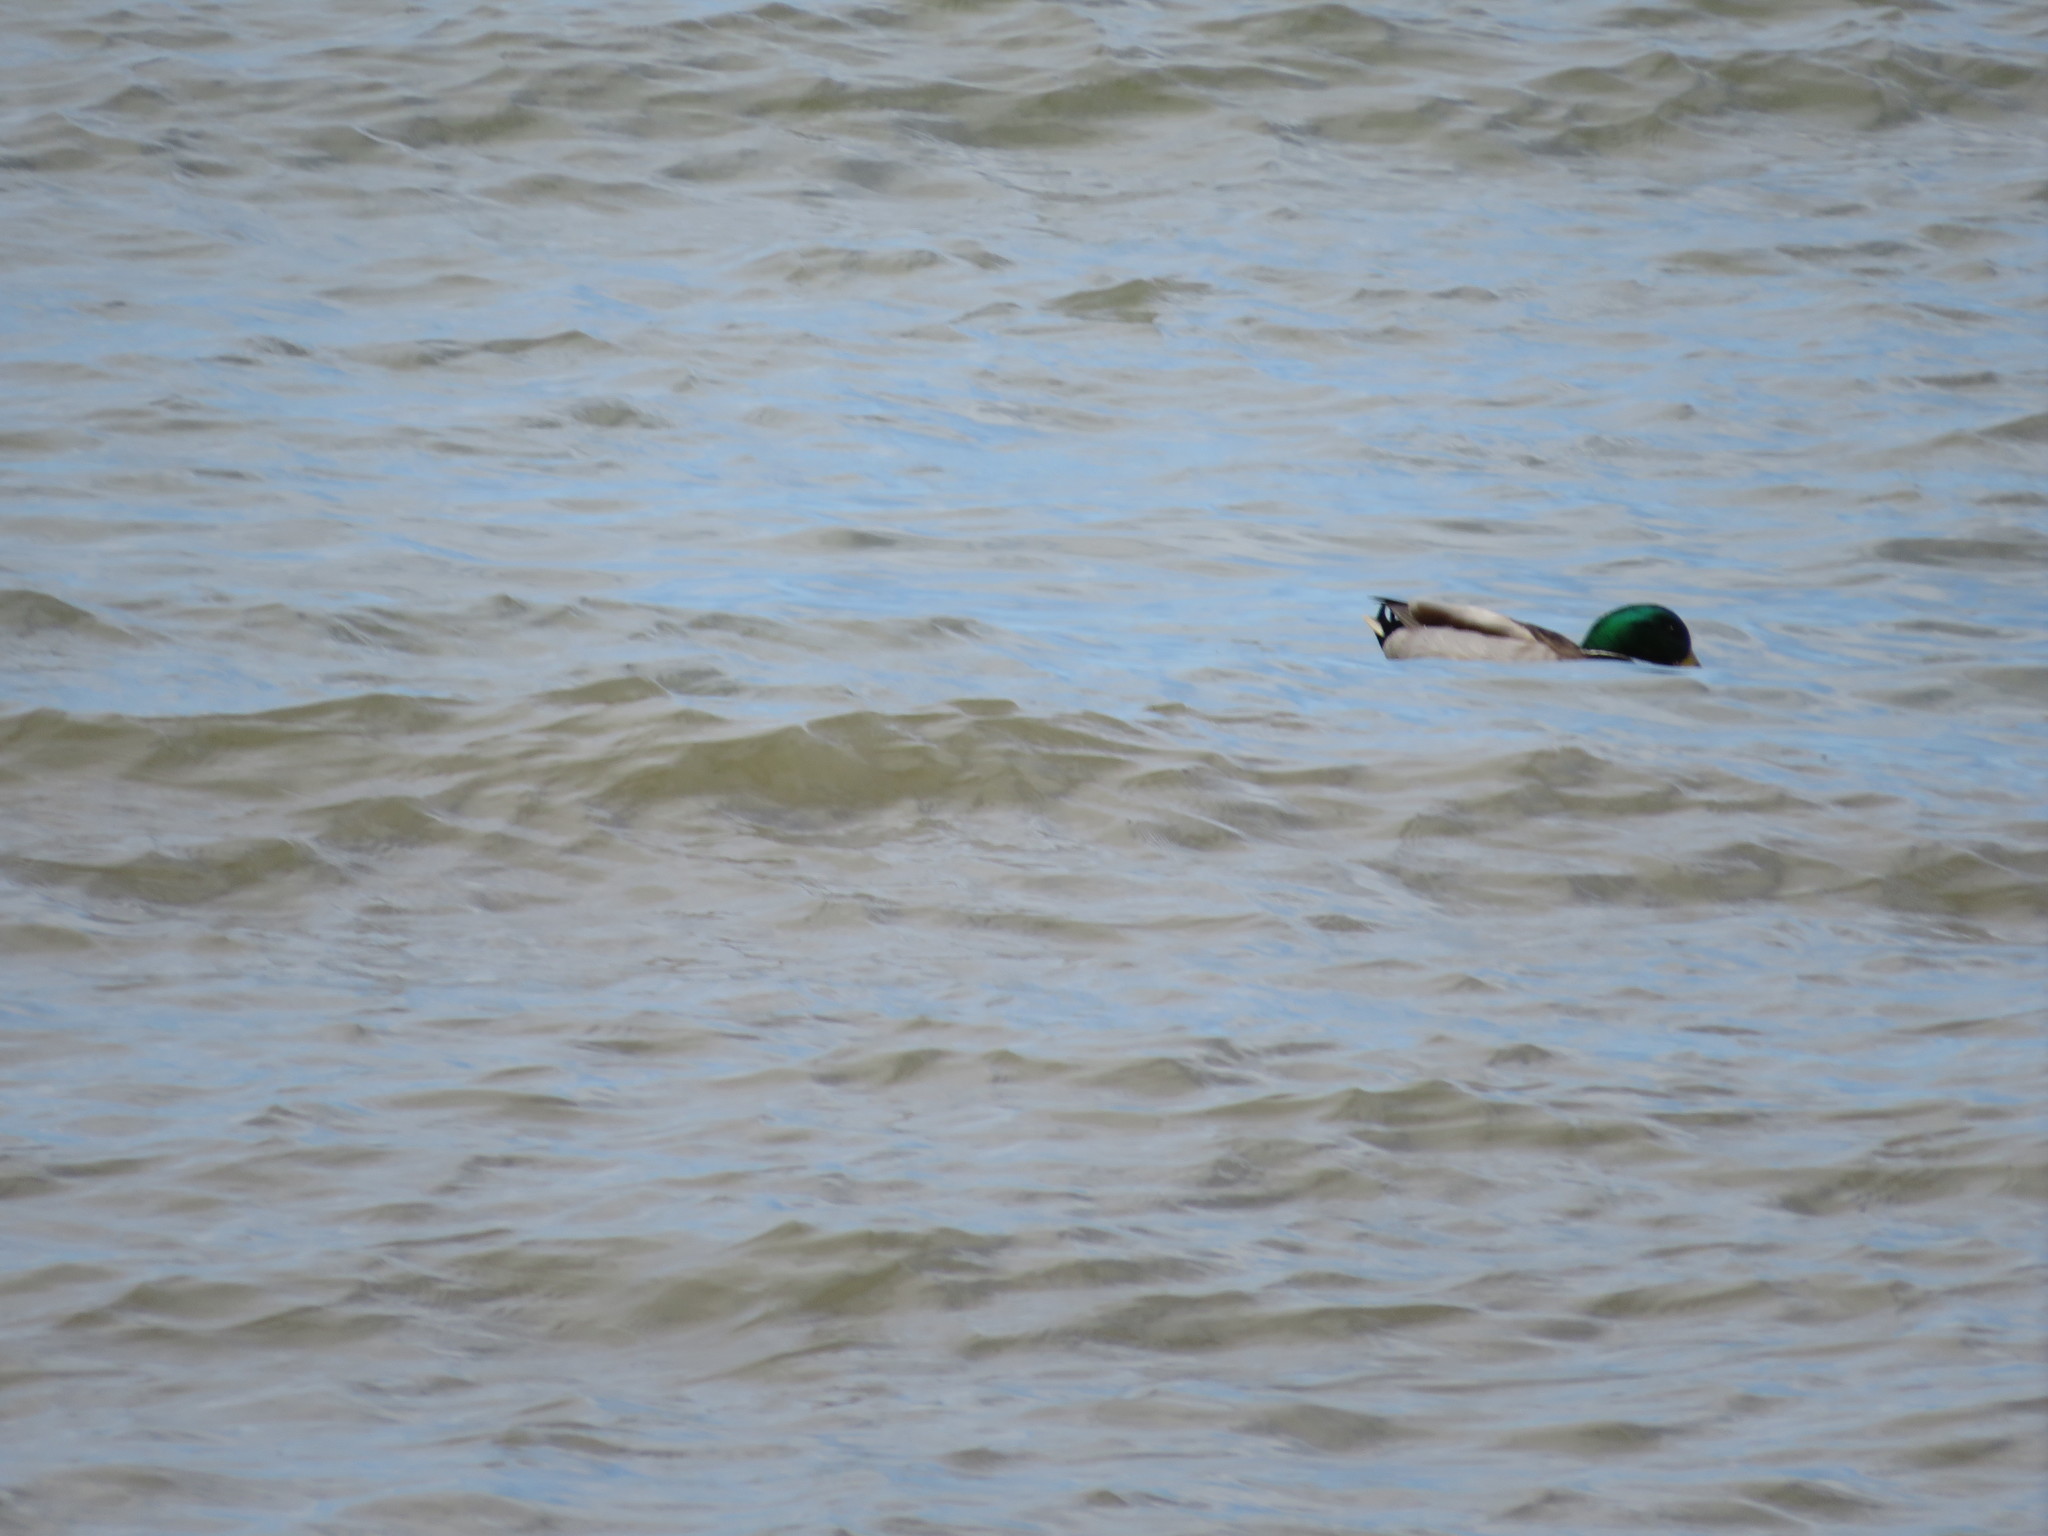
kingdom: Animalia
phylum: Chordata
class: Aves
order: Anseriformes
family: Anatidae
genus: Anas
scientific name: Anas platyrhynchos
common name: Mallard
